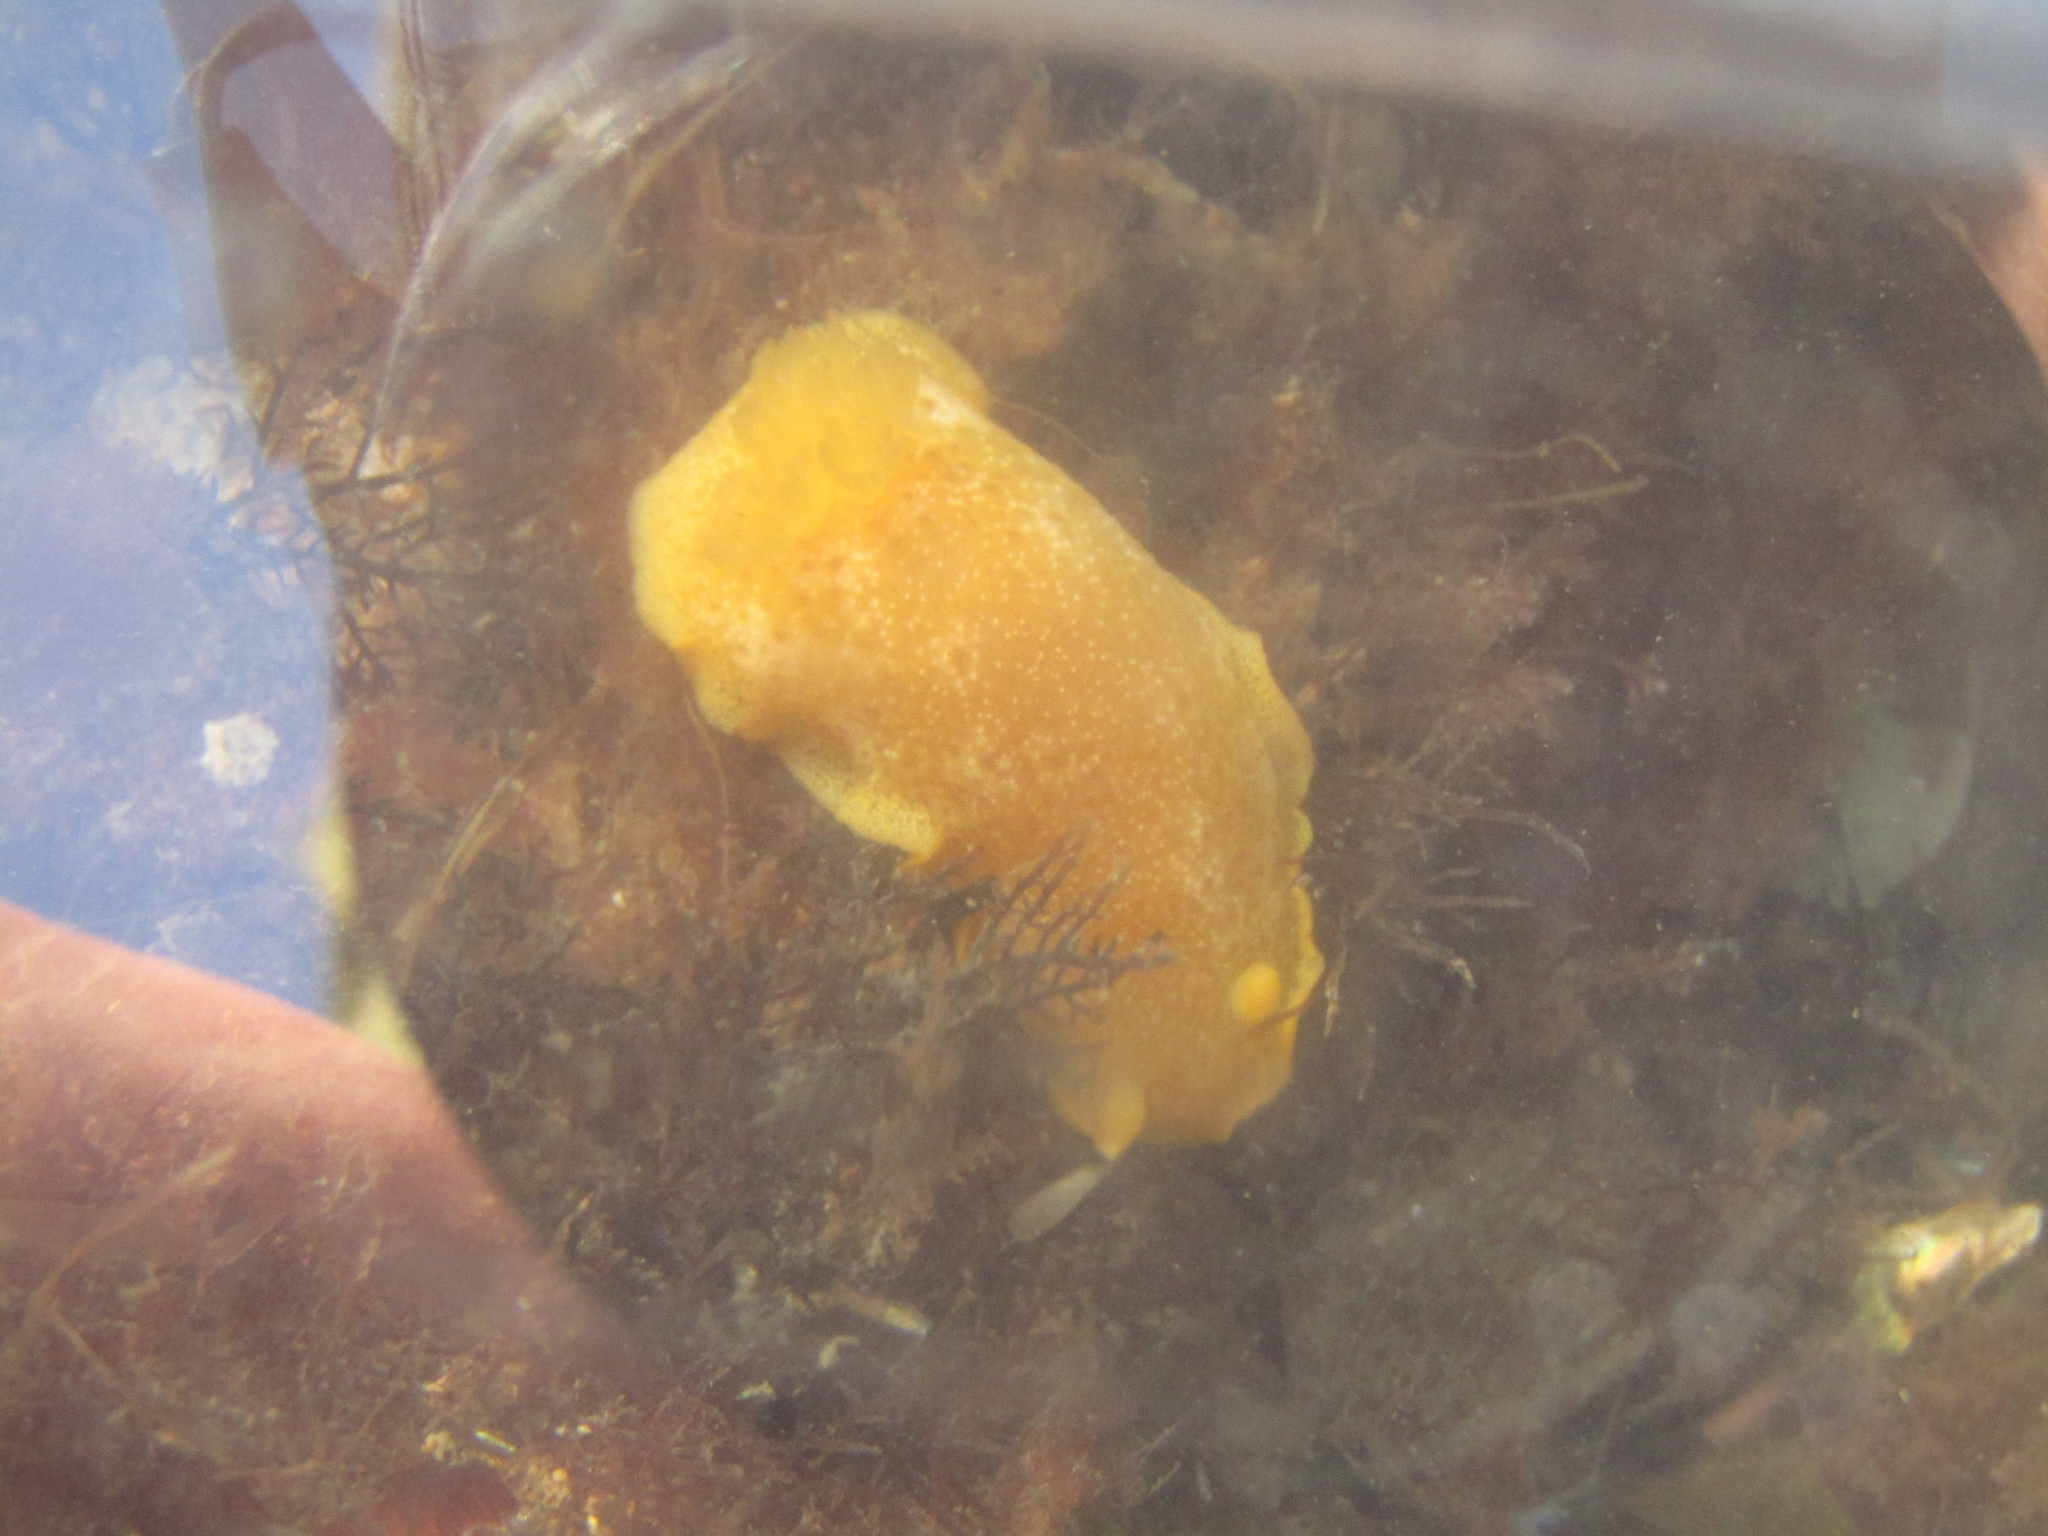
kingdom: Animalia
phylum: Mollusca
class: Gastropoda
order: Nudibranchia
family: Dendrodorididae
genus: Dendrodoris
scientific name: Dendrodoris citrina
